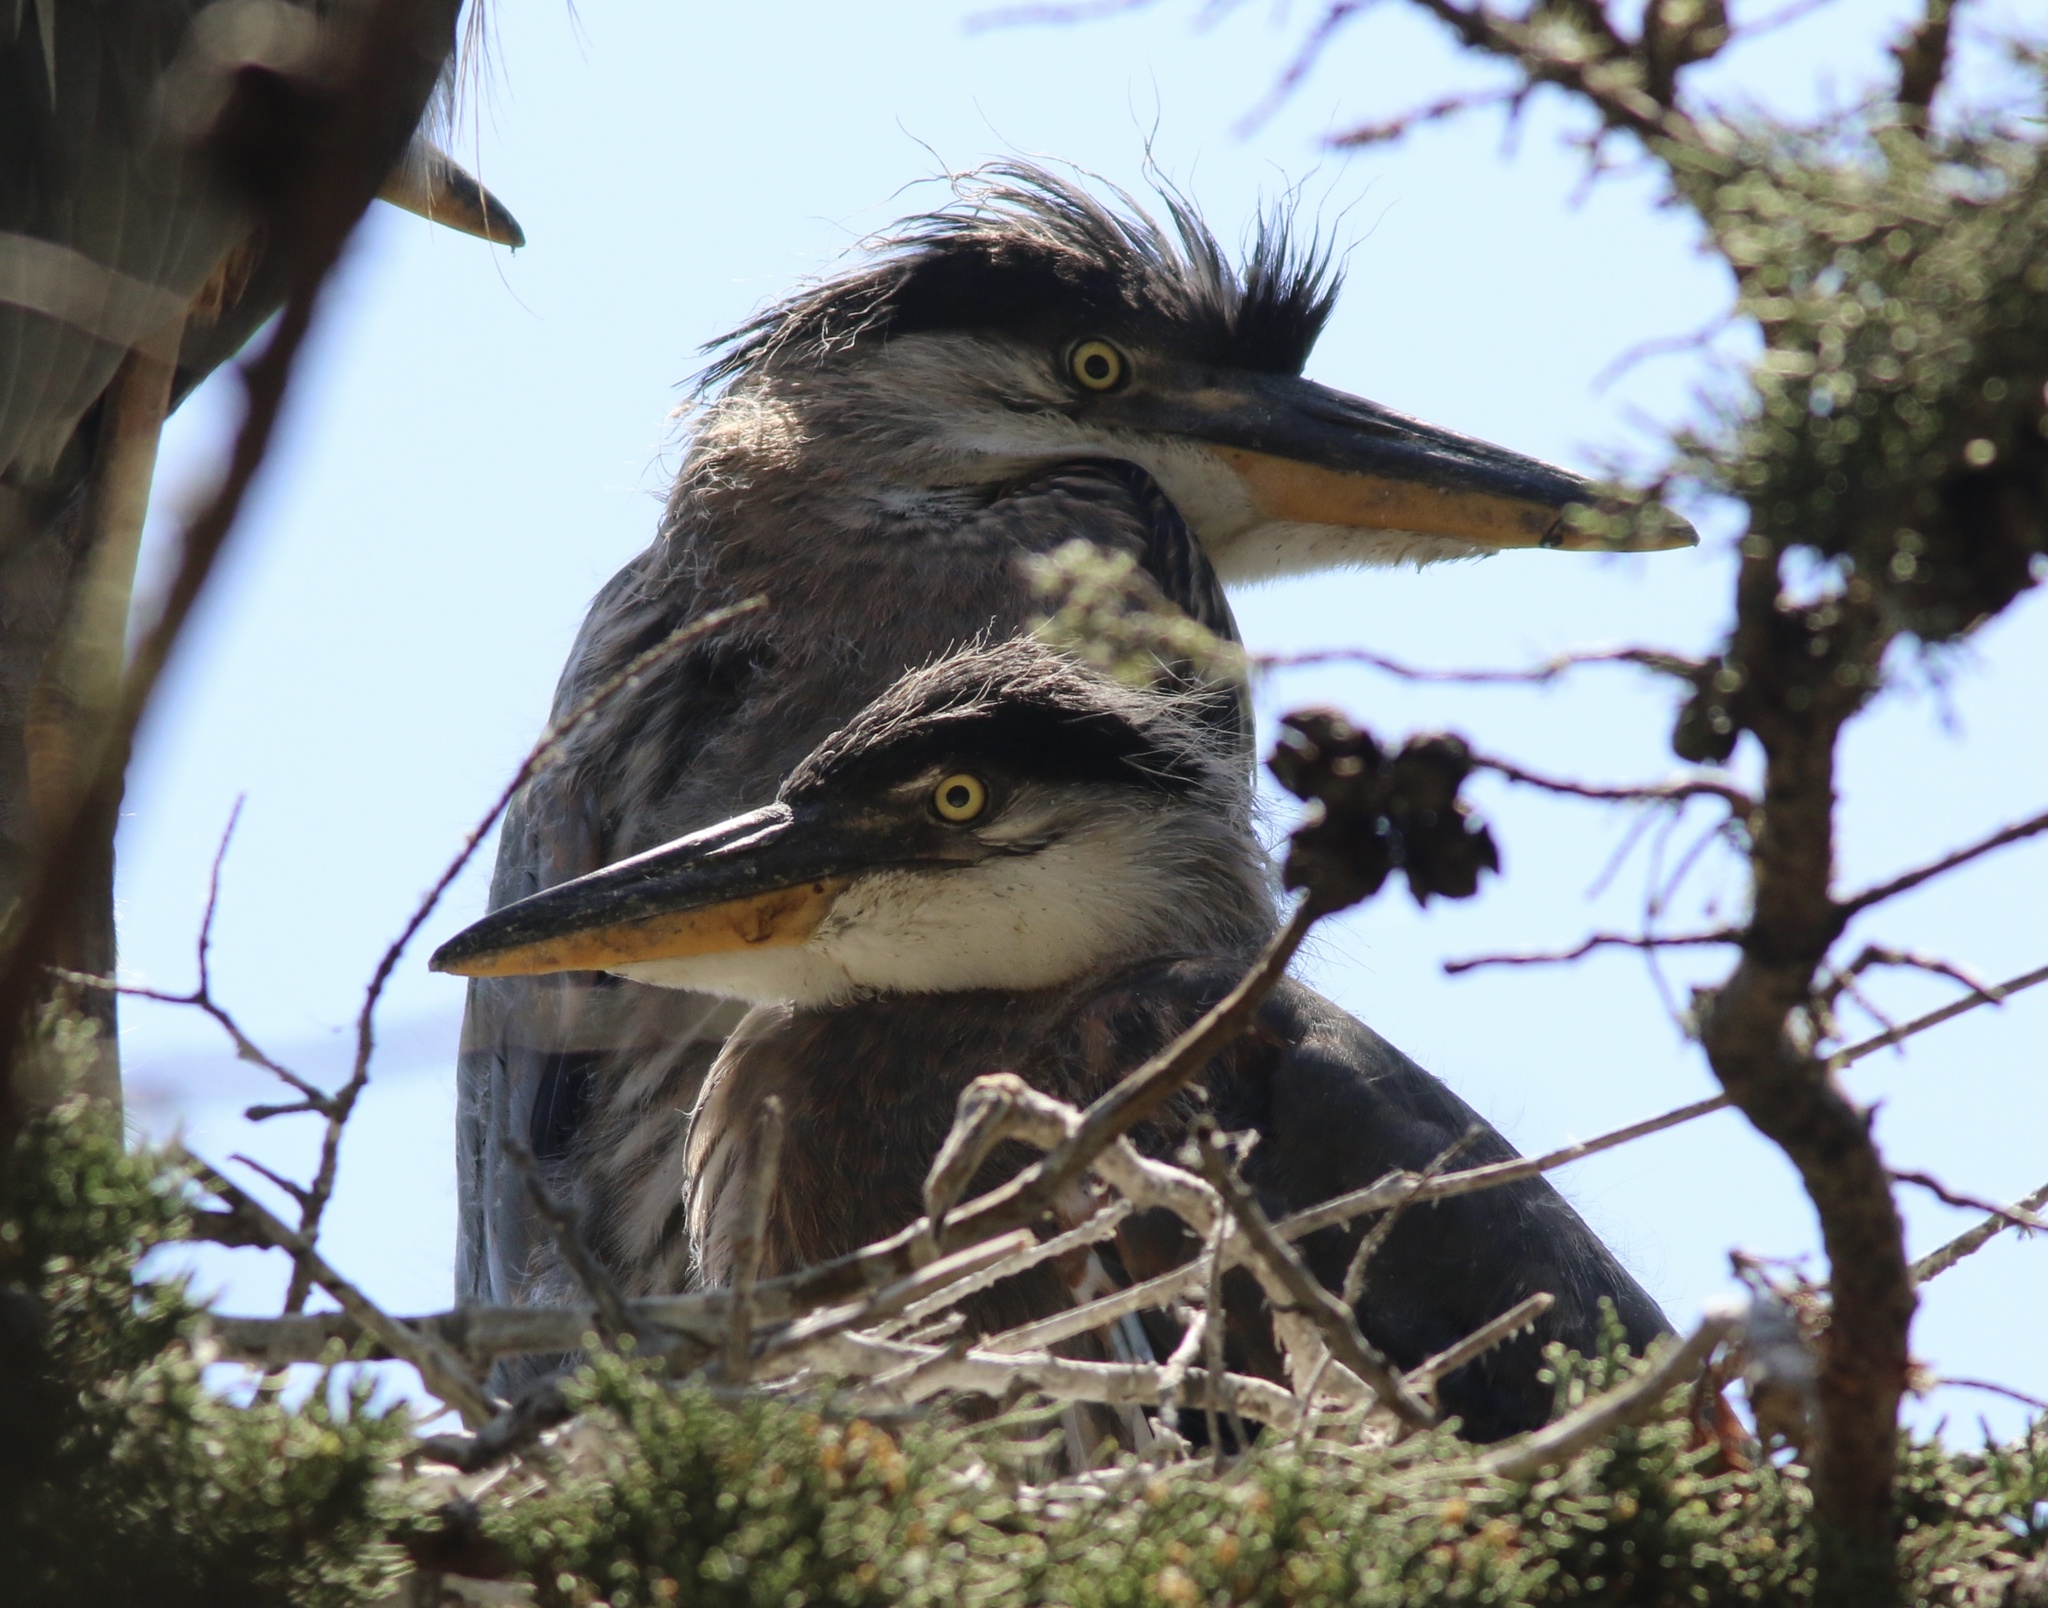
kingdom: Animalia
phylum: Chordata
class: Aves
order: Pelecaniformes
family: Ardeidae
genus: Ardea
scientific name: Ardea herodias
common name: Great blue heron
